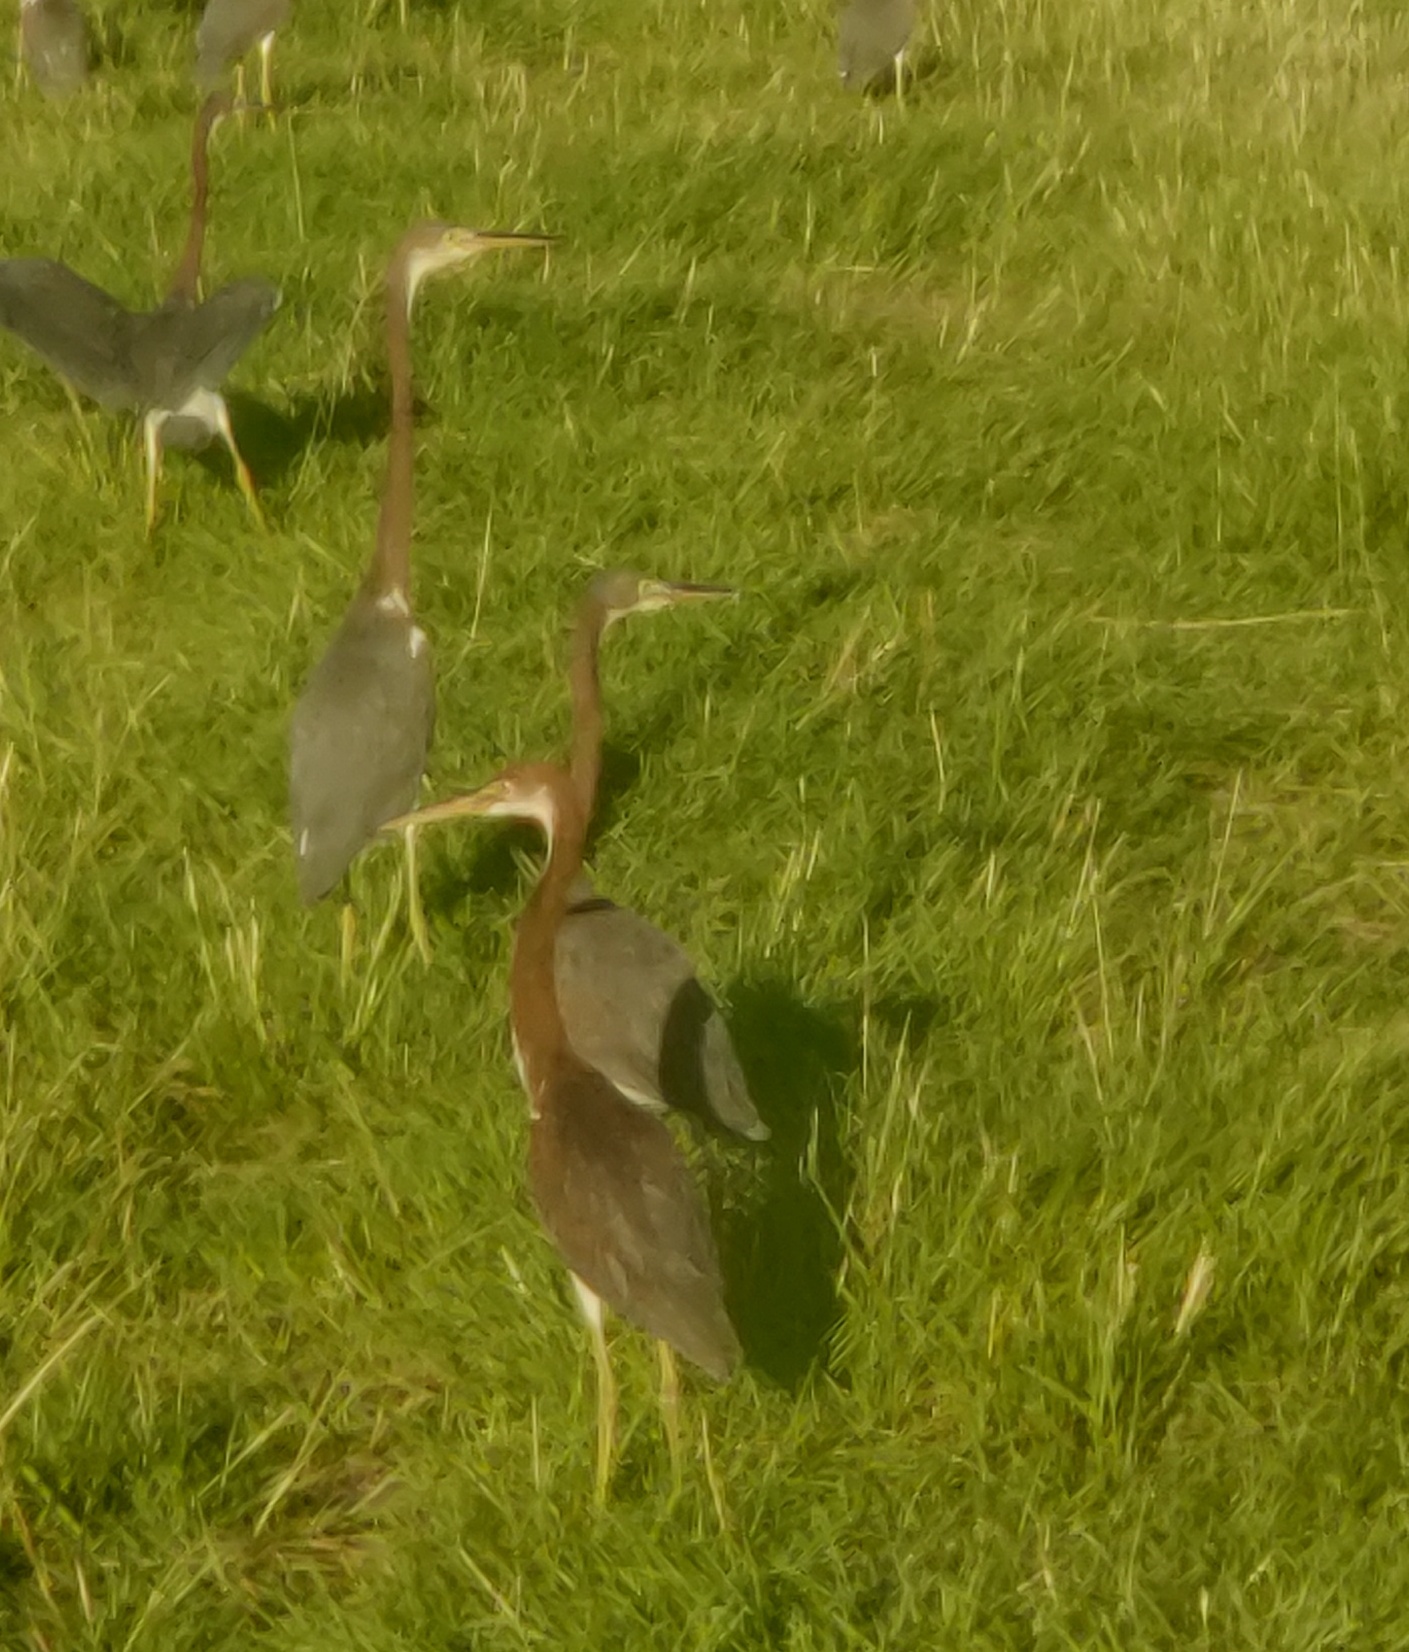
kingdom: Animalia
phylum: Chordata
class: Aves
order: Pelecaniformes
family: Ardeidae
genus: Egretta
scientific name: Egretta tricolor
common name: Tricolored heron
